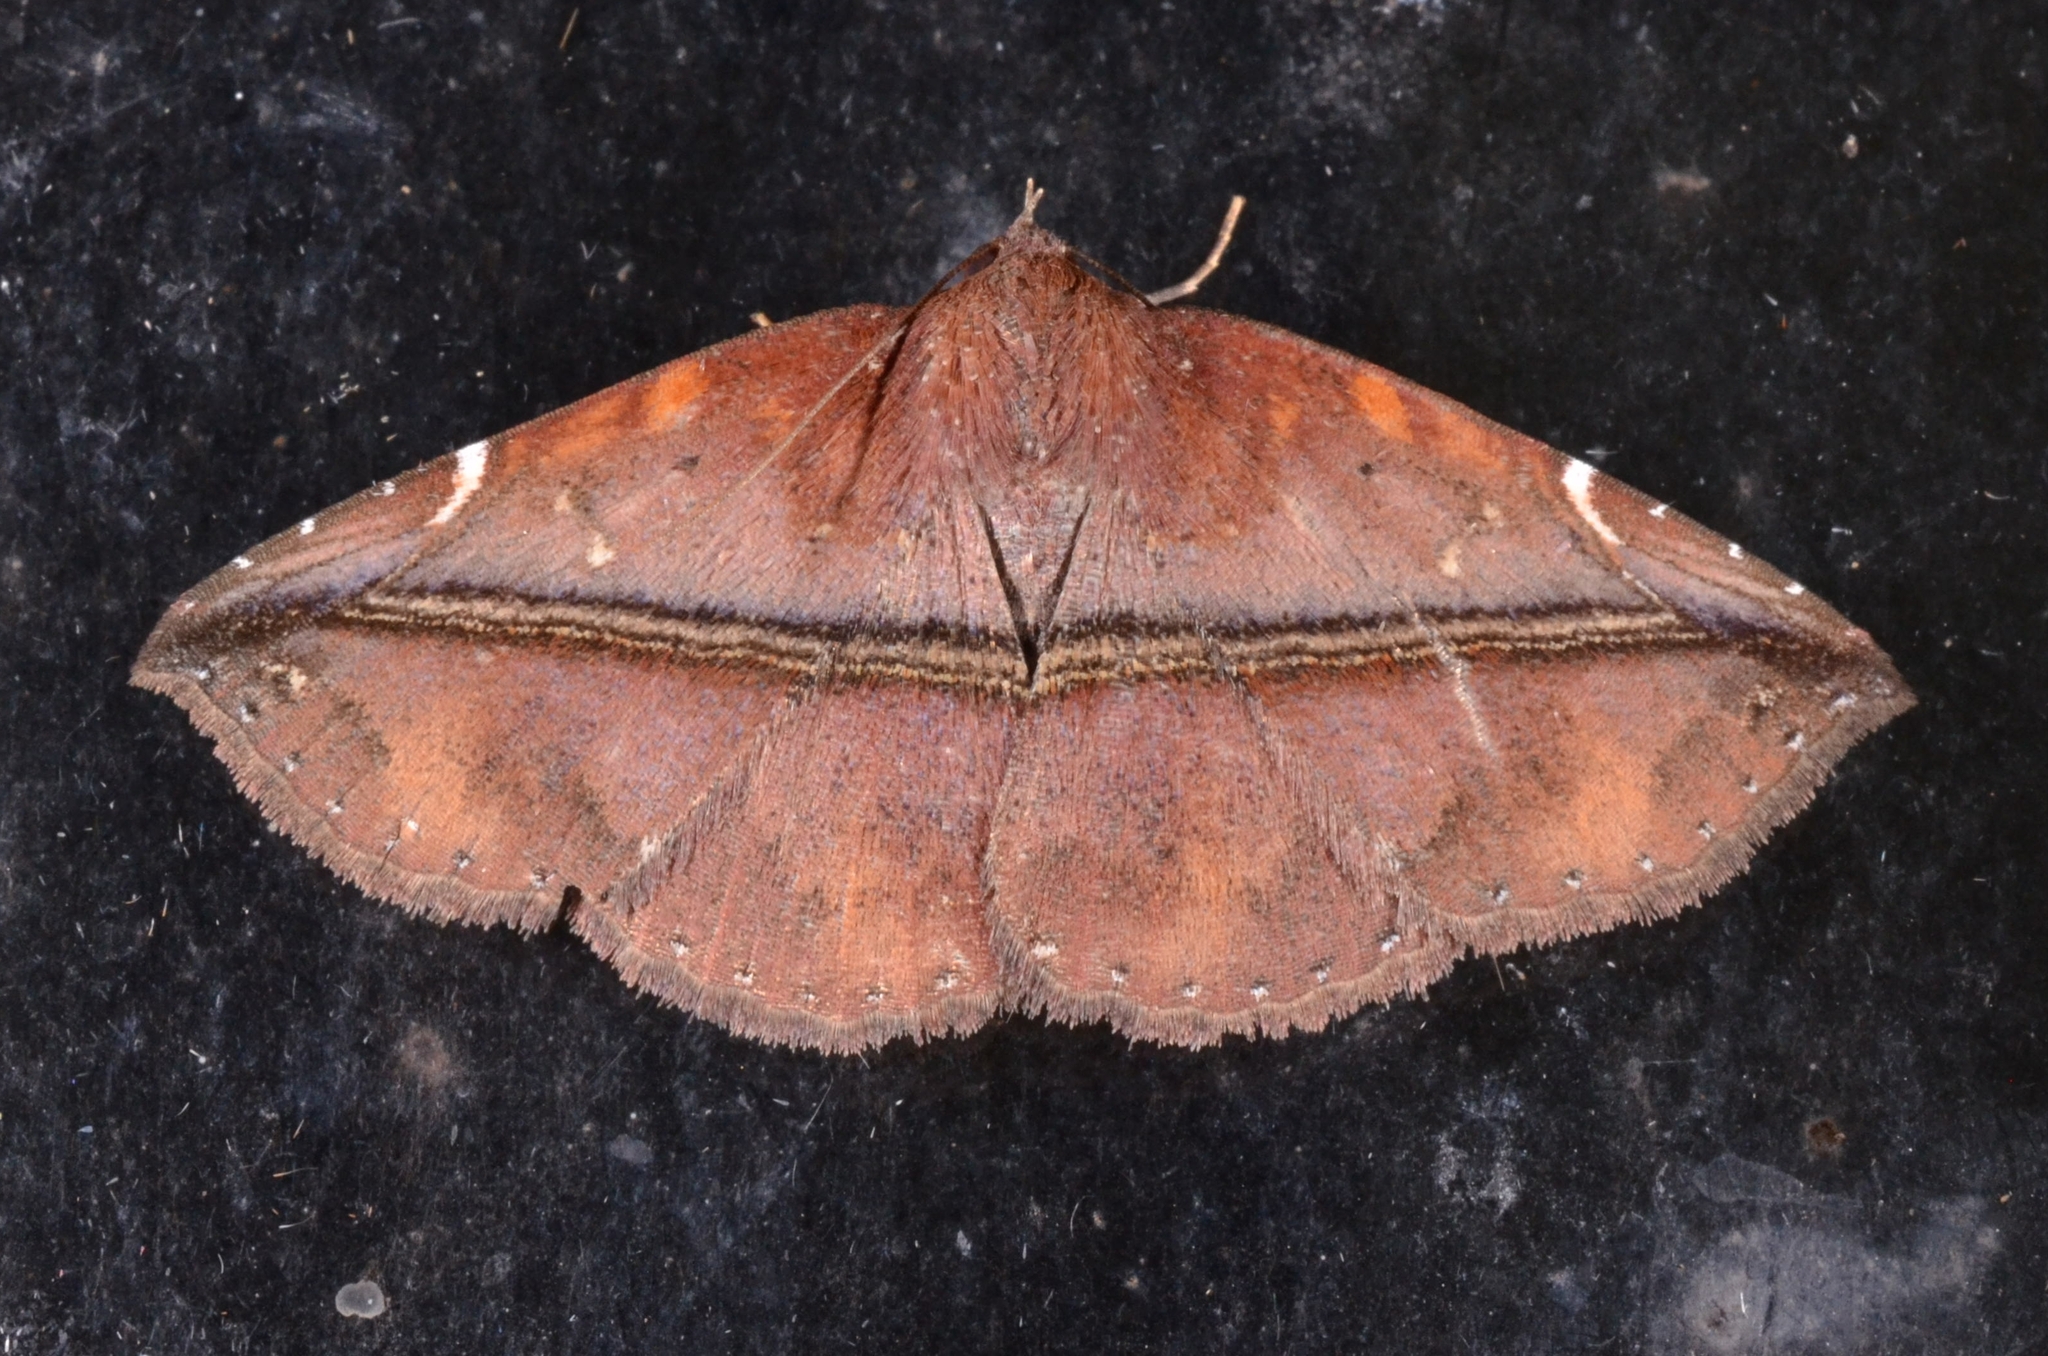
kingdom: Animalia
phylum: Arthropoda
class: Insecta
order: Lepidoptera
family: Erebidae
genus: Condate
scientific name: Condate purpurea
